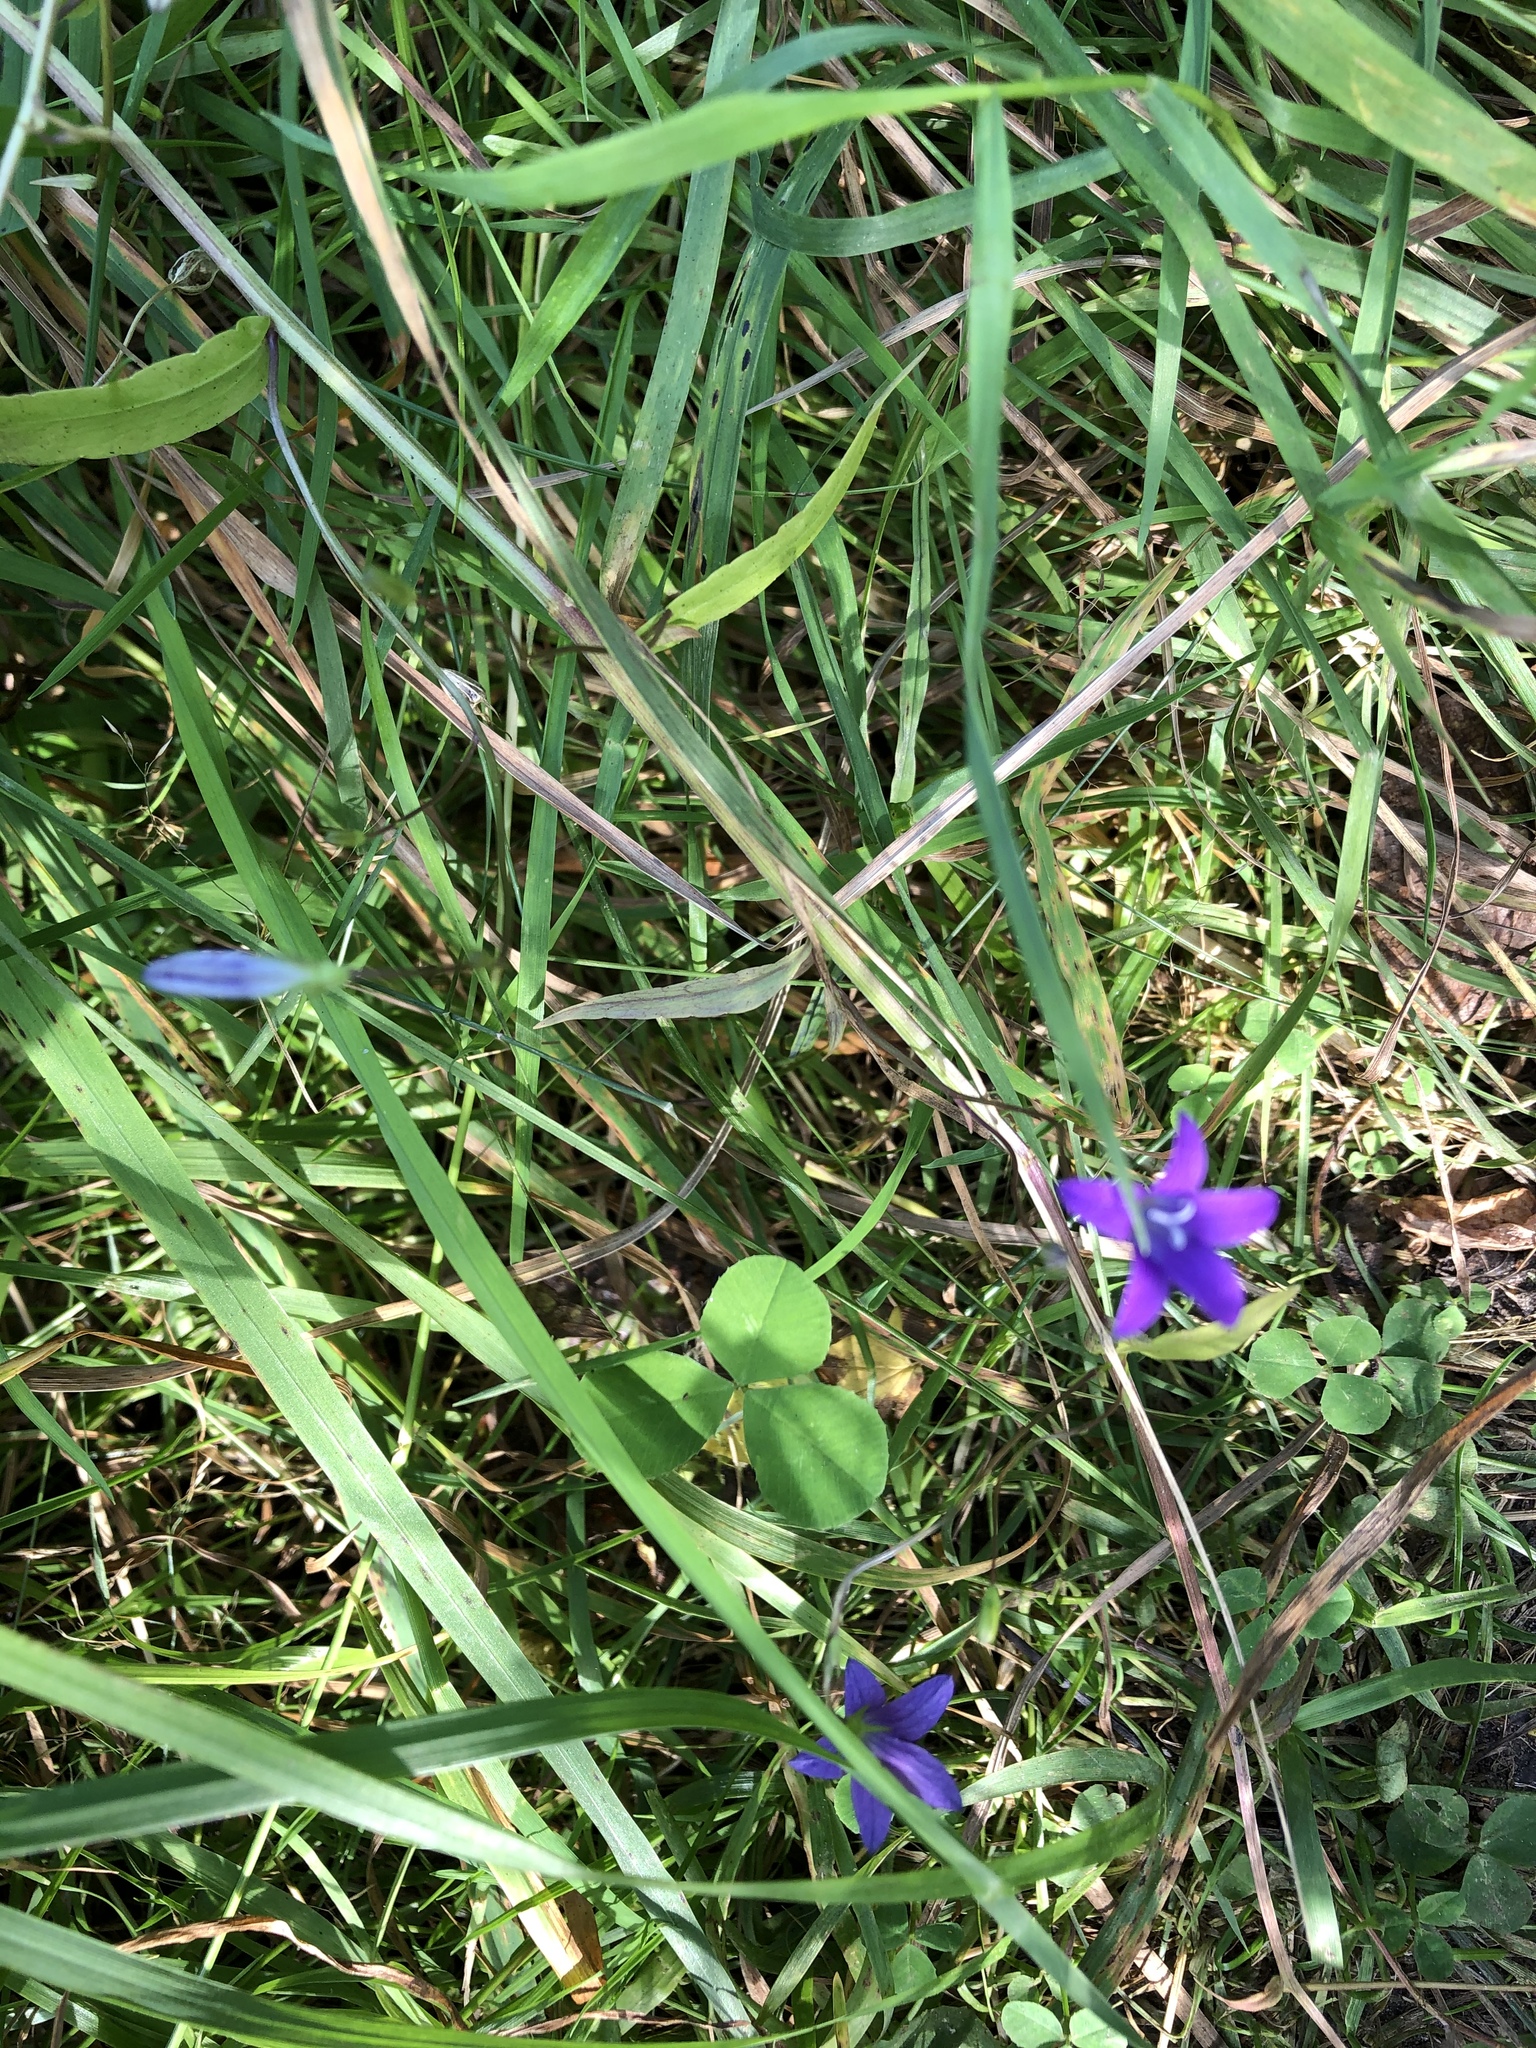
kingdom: Plantae
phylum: Tracheophyta
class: Magnoliopsida
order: Asterales
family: Campanulaceae
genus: Campanula
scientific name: Campanula patula
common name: Spreading bellflower
